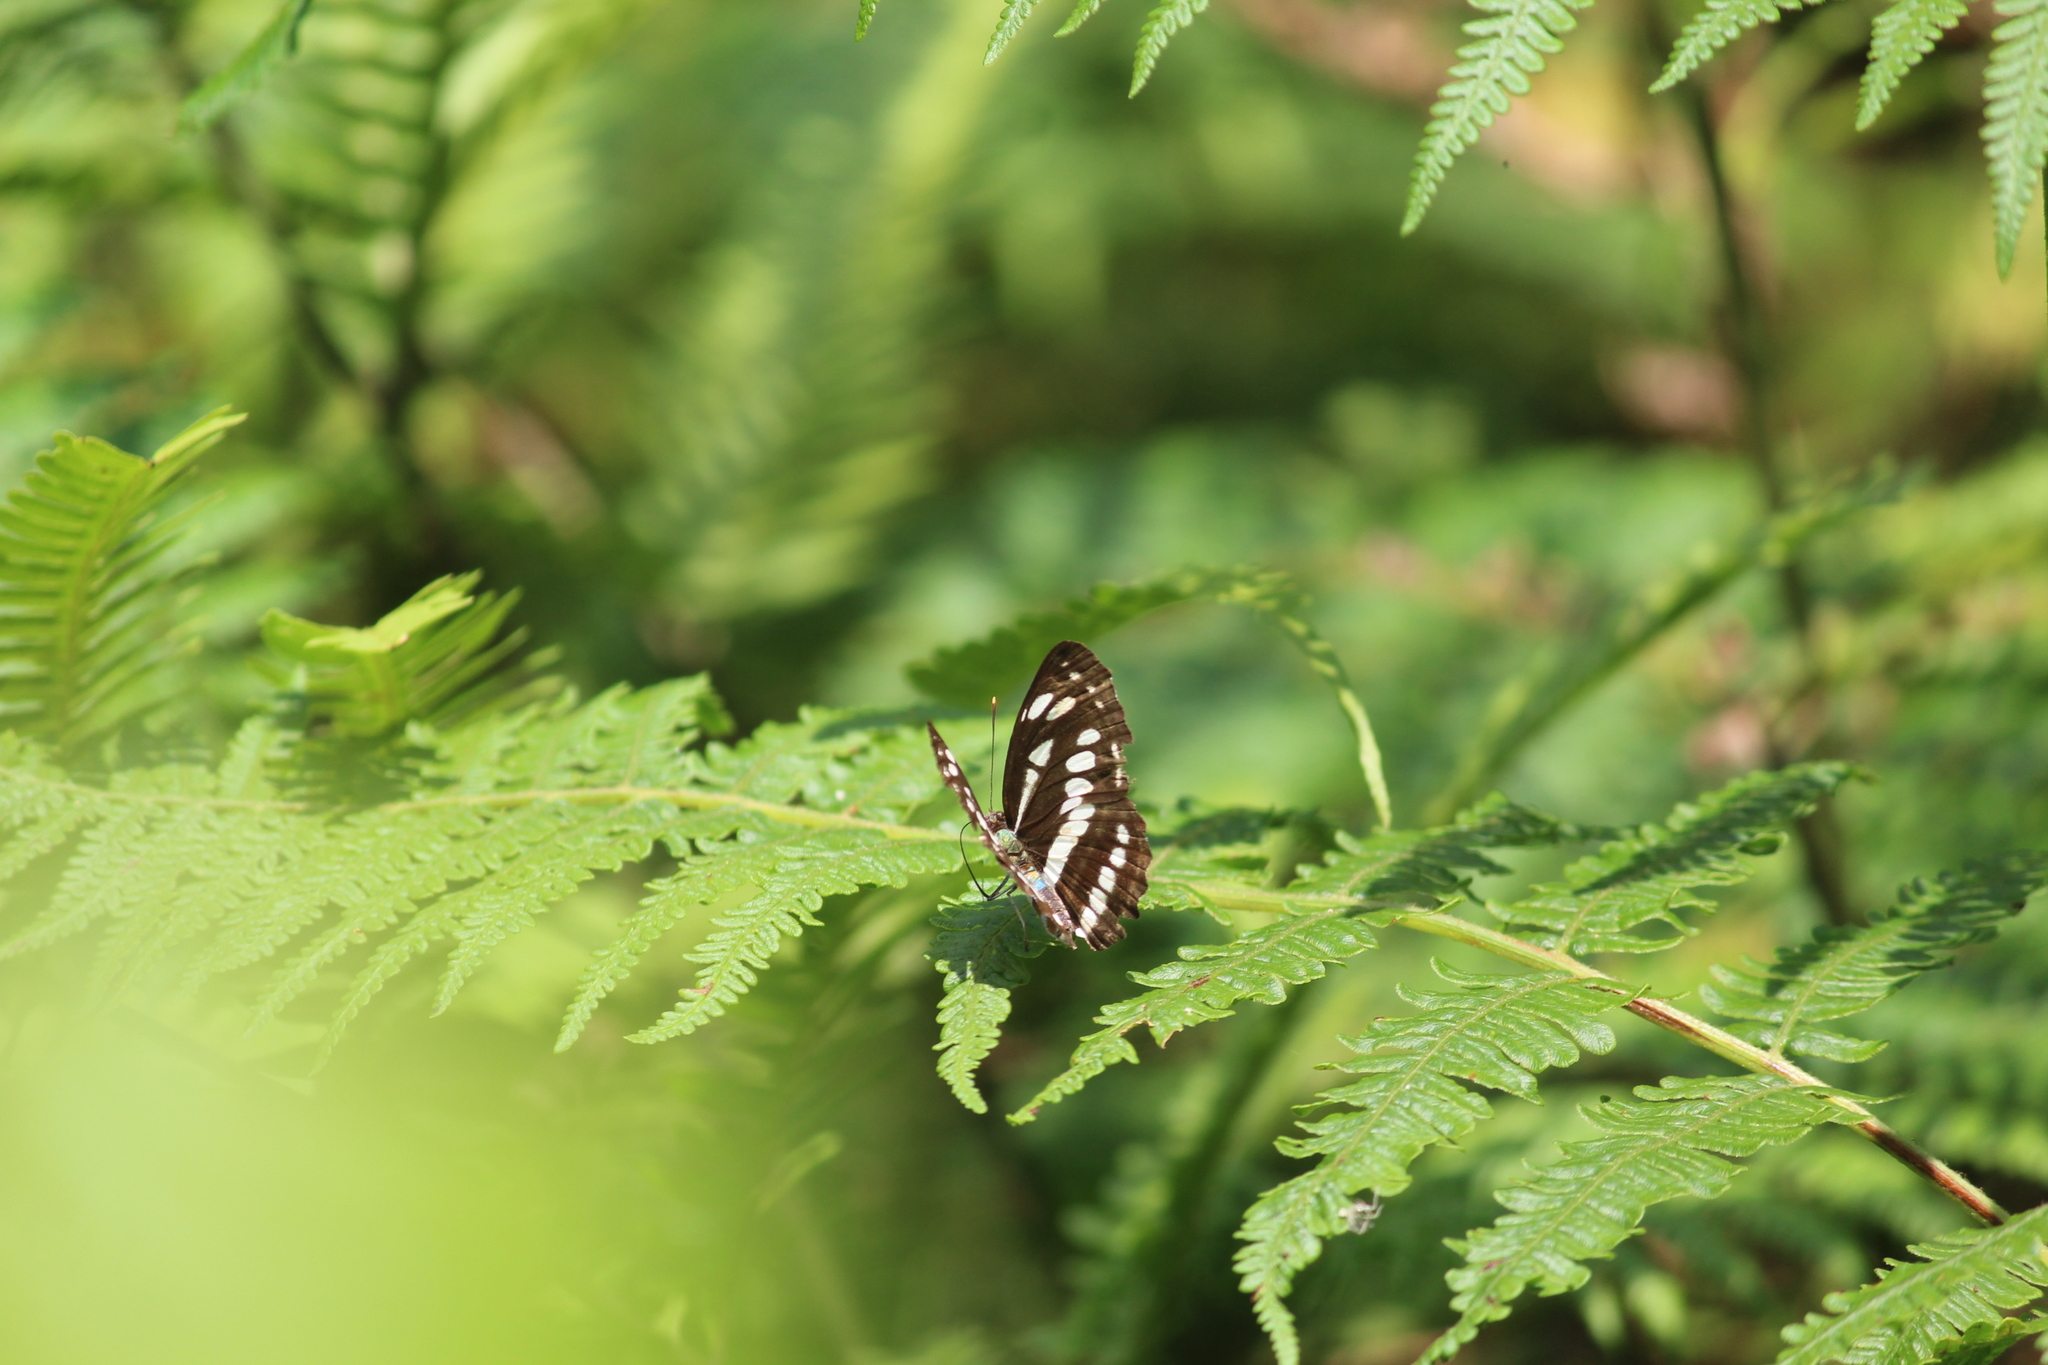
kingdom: Animalia
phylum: Arthropoda
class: Insecta
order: Lepidoptera
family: Nymphalidae
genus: Neptis
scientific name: Neptis hylas
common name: Common sailer
